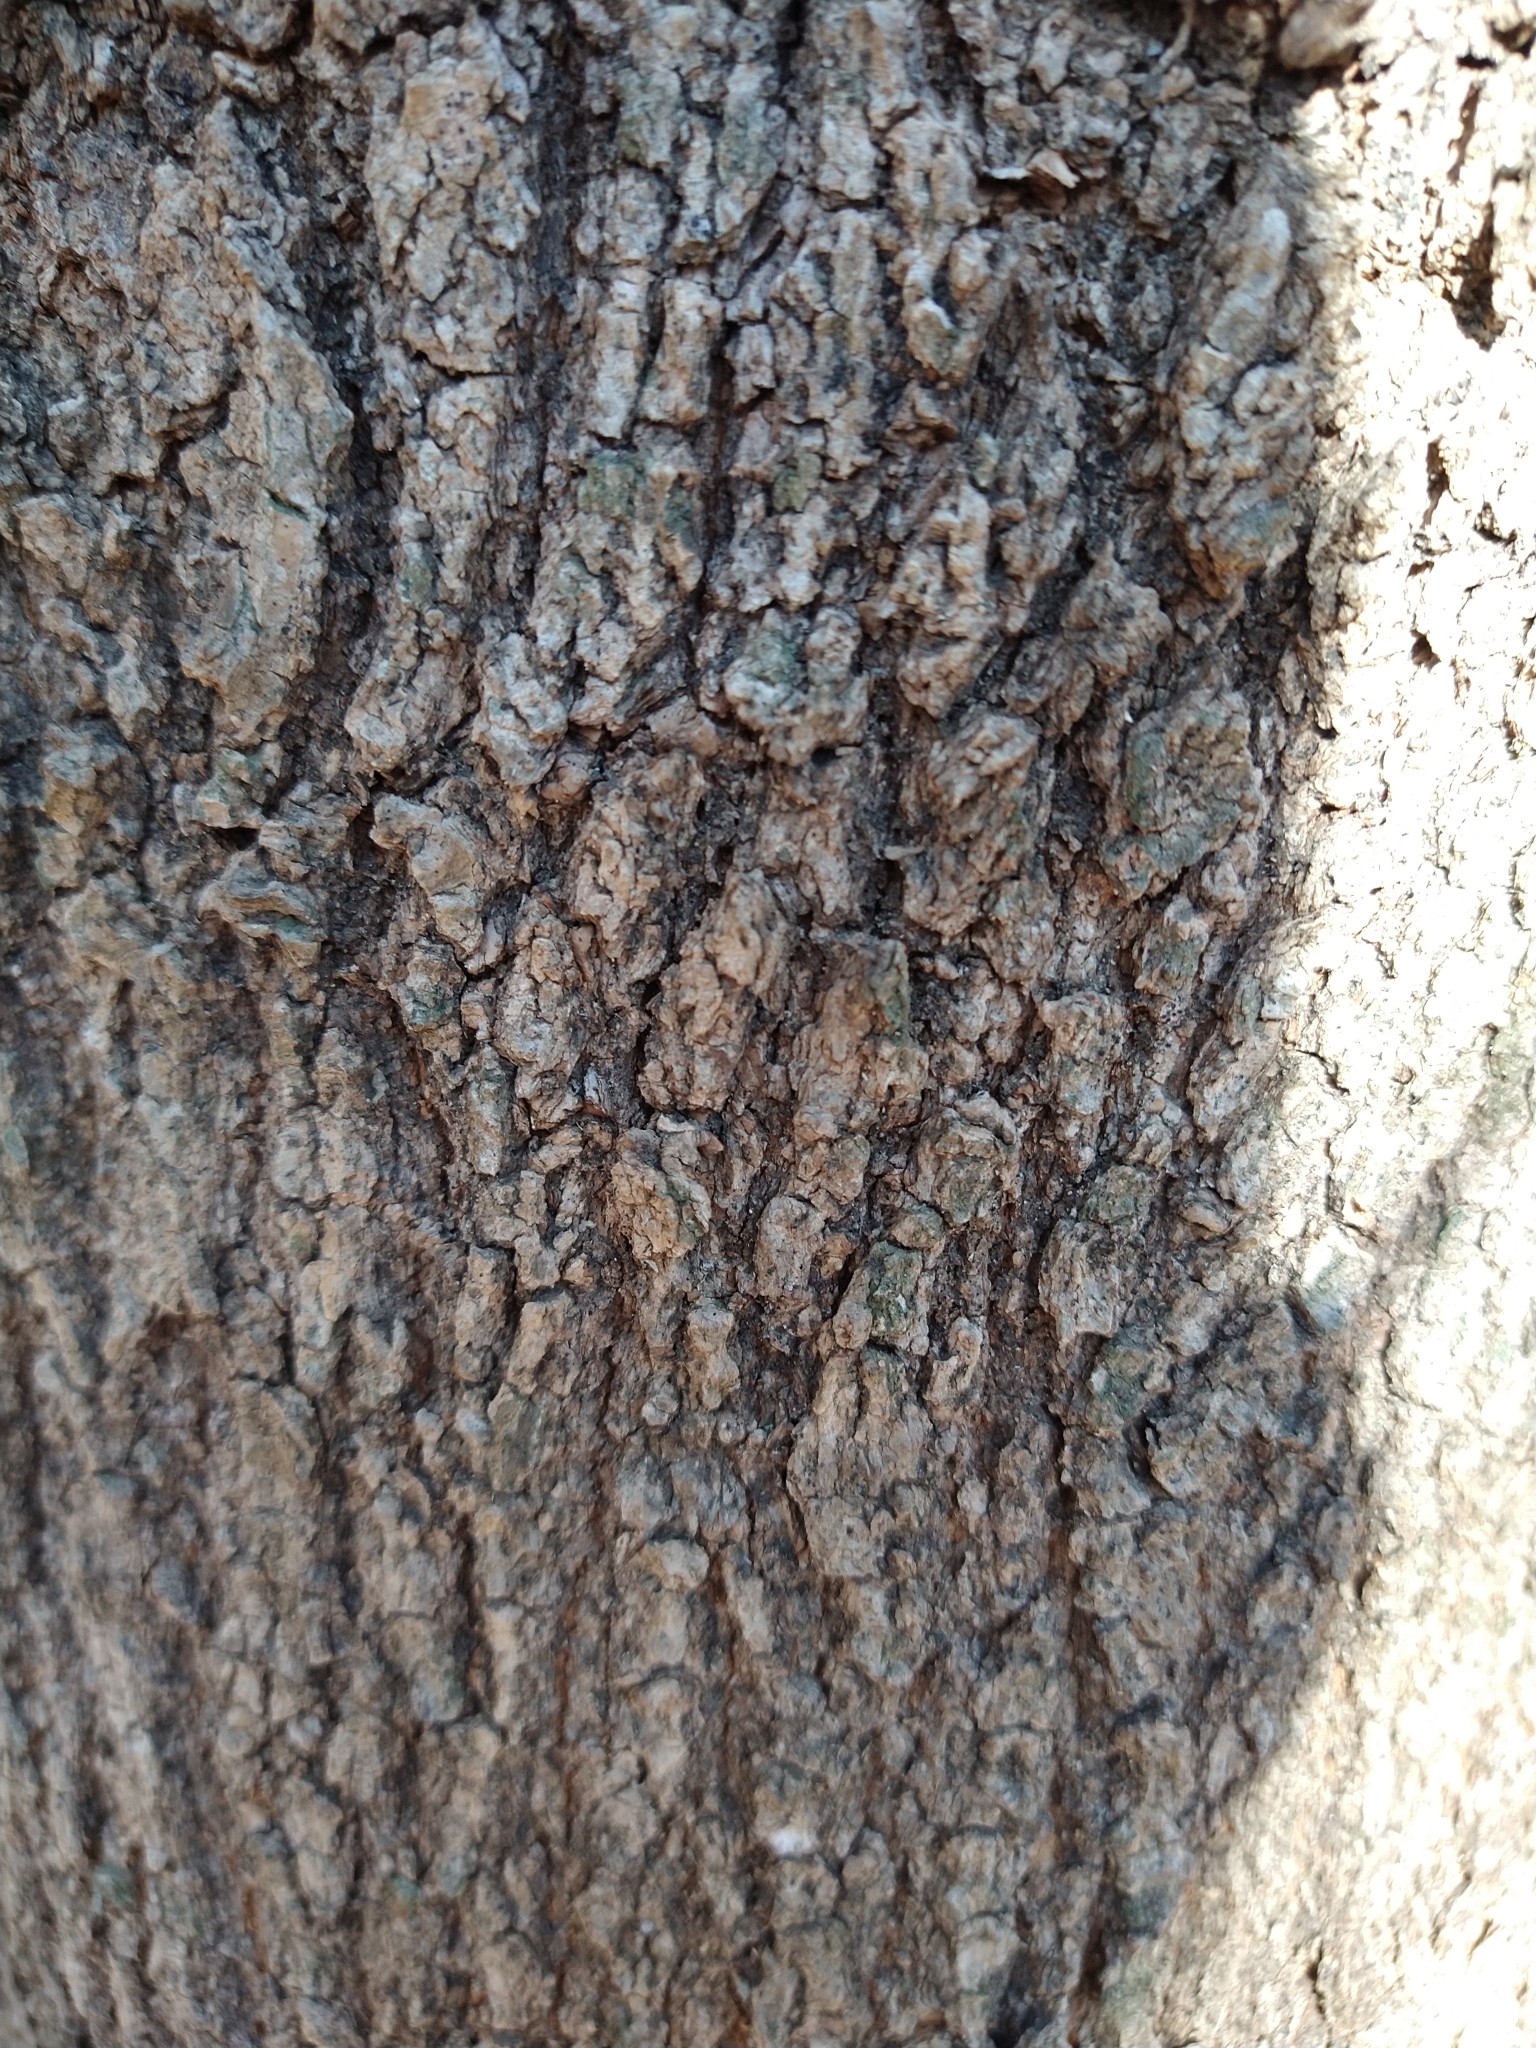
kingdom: Plantae
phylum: Tracheophyta
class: Magnoliopsida
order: Sapindales
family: Sapindaceae
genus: Acer
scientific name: Acer negundo
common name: Ashleaf maple
